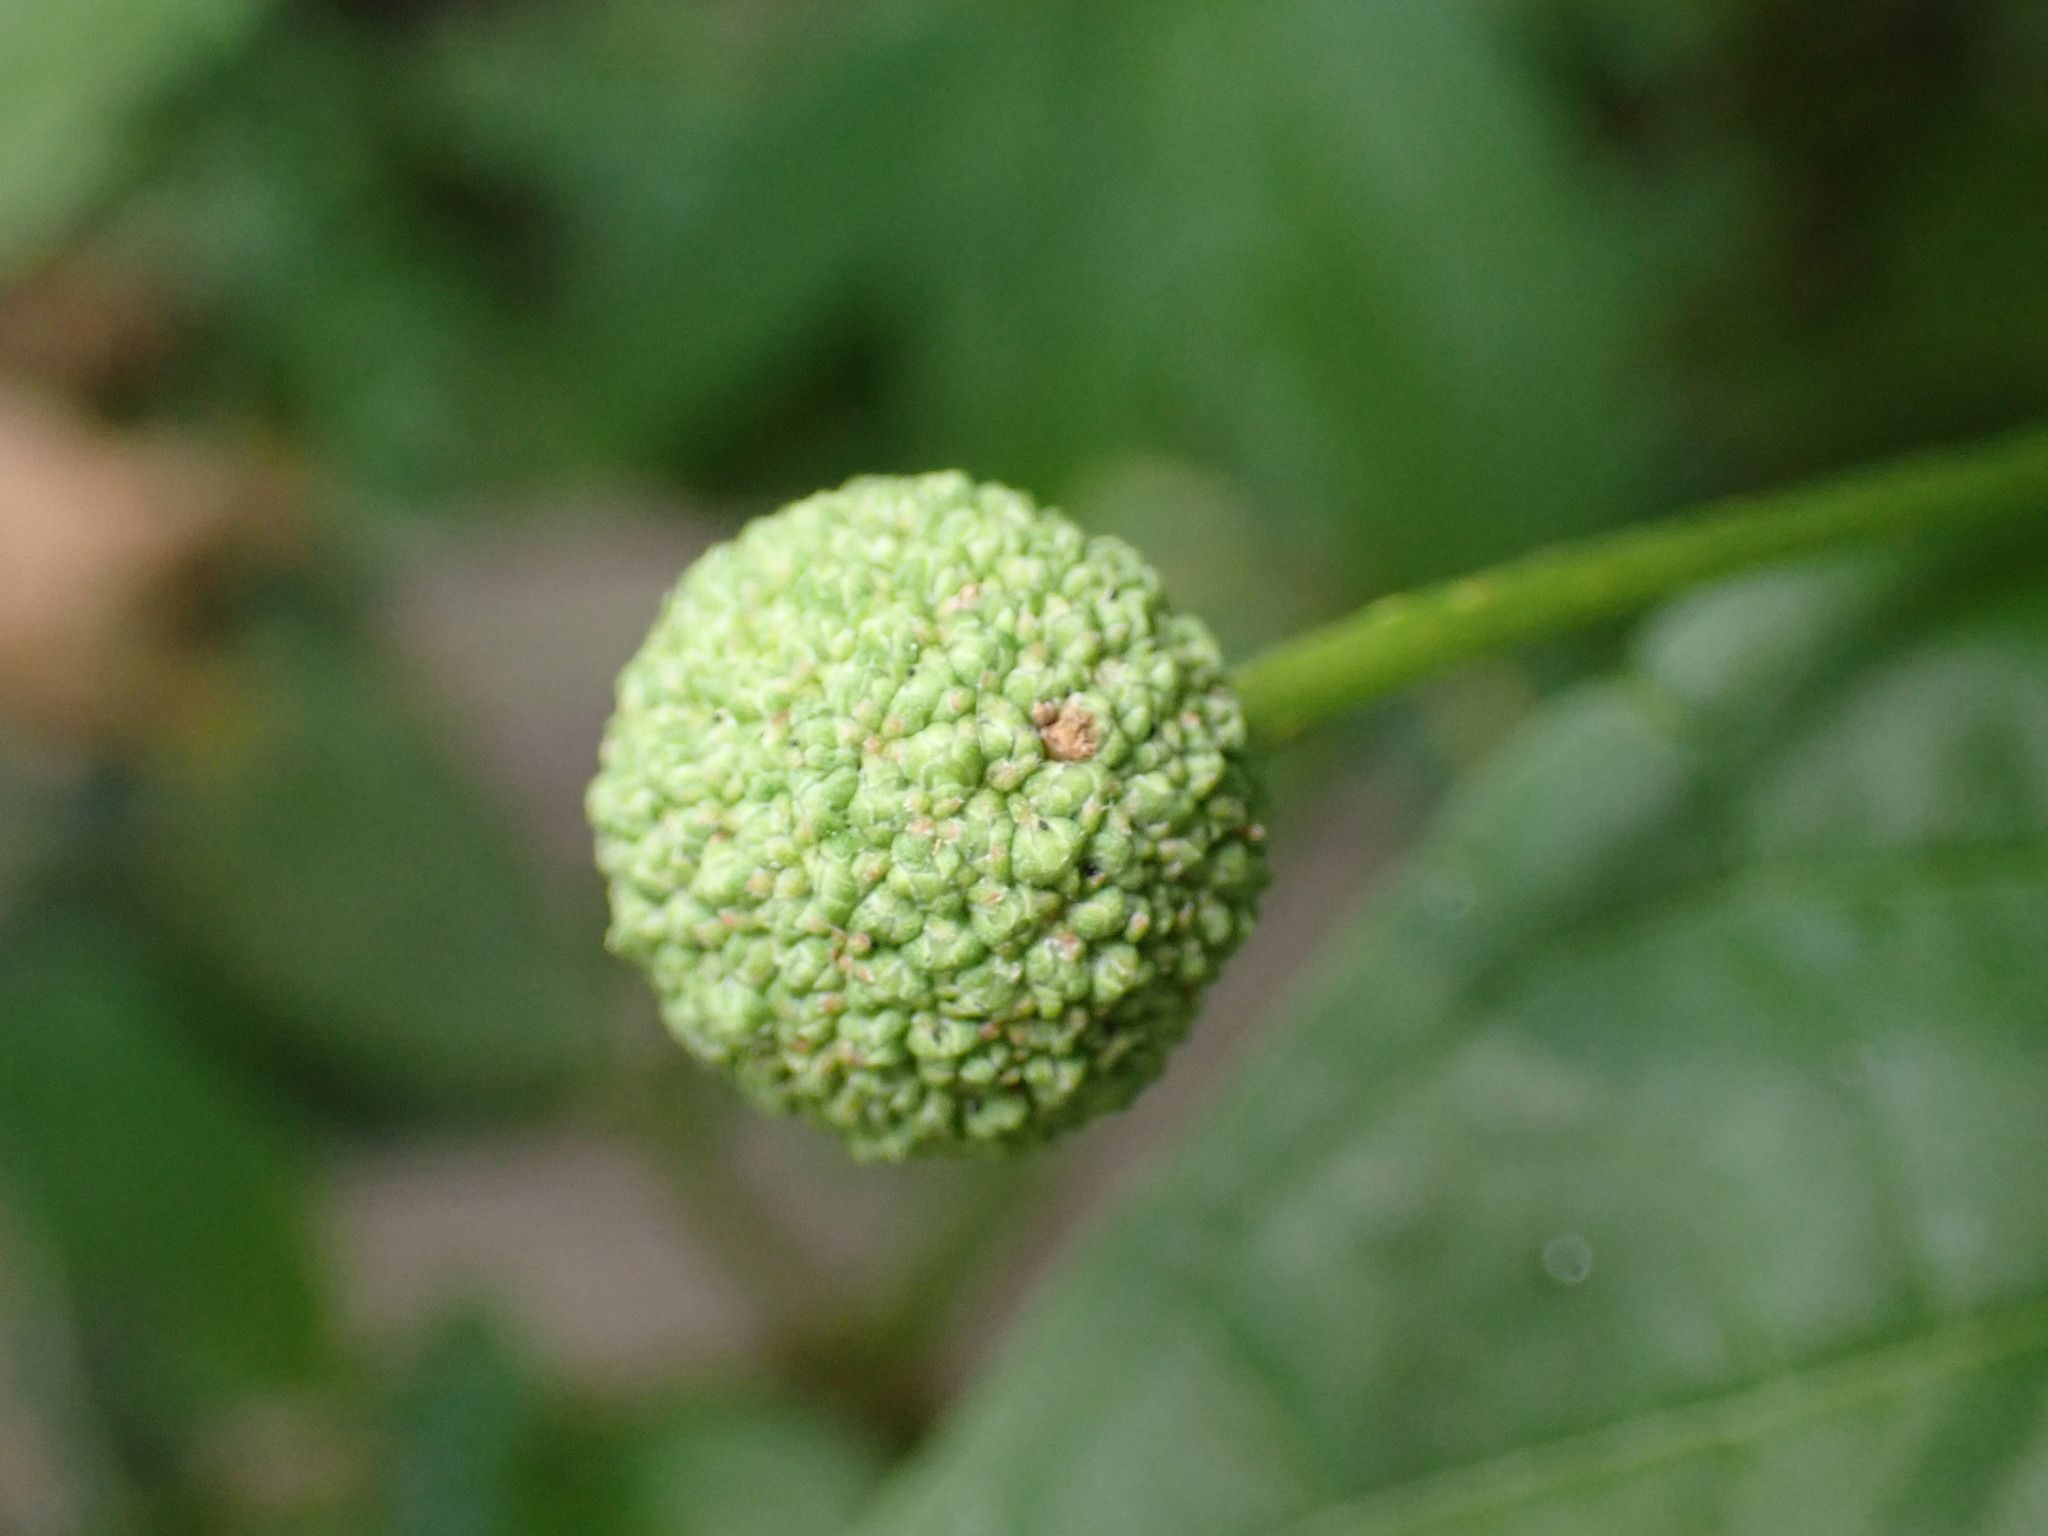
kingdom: Plantae
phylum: Tracheophyta
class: Magnoliopsida
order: Gentianales
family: Rubiaceae
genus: Cephalanthus
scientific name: Cephalanthus occidentalis
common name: Button-willow
